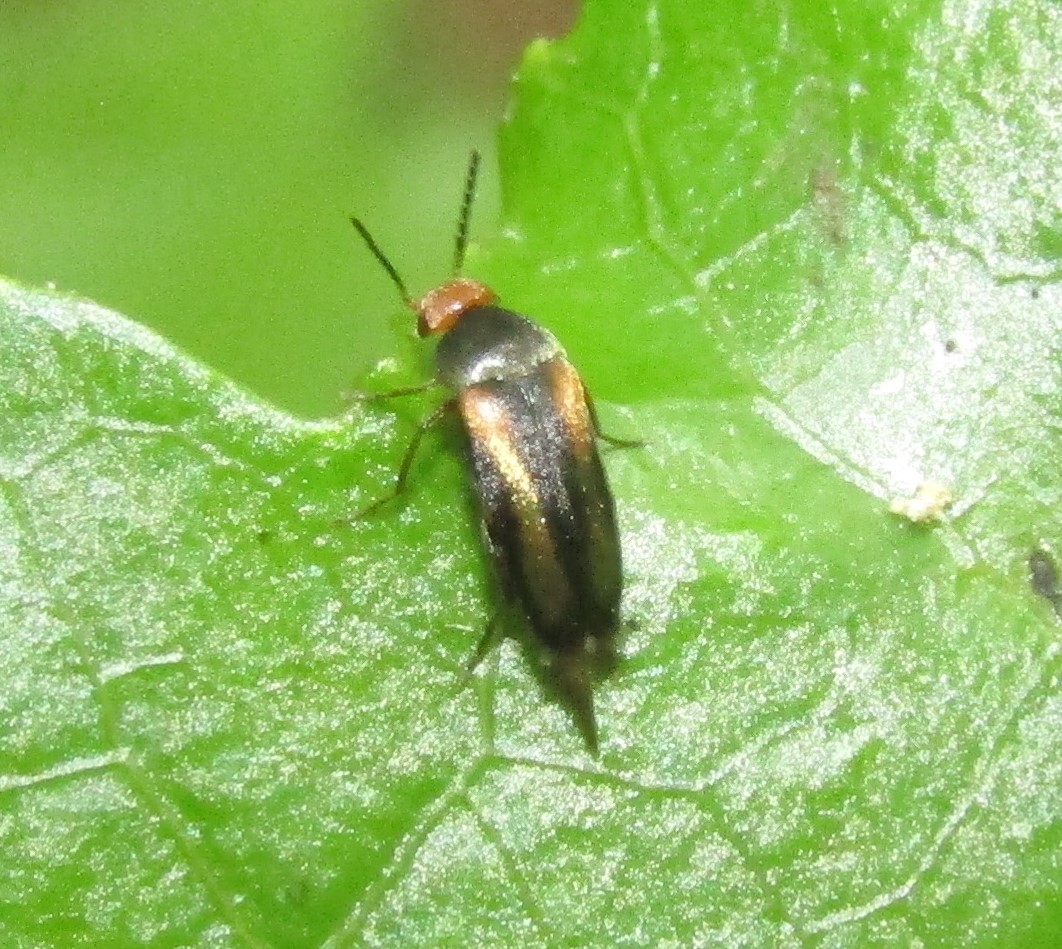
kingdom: Animalia
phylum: Arthropoda
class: Insecta
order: Coleoptera
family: Mordellidae
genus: Mordellistena
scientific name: Mordellistena attenuata
